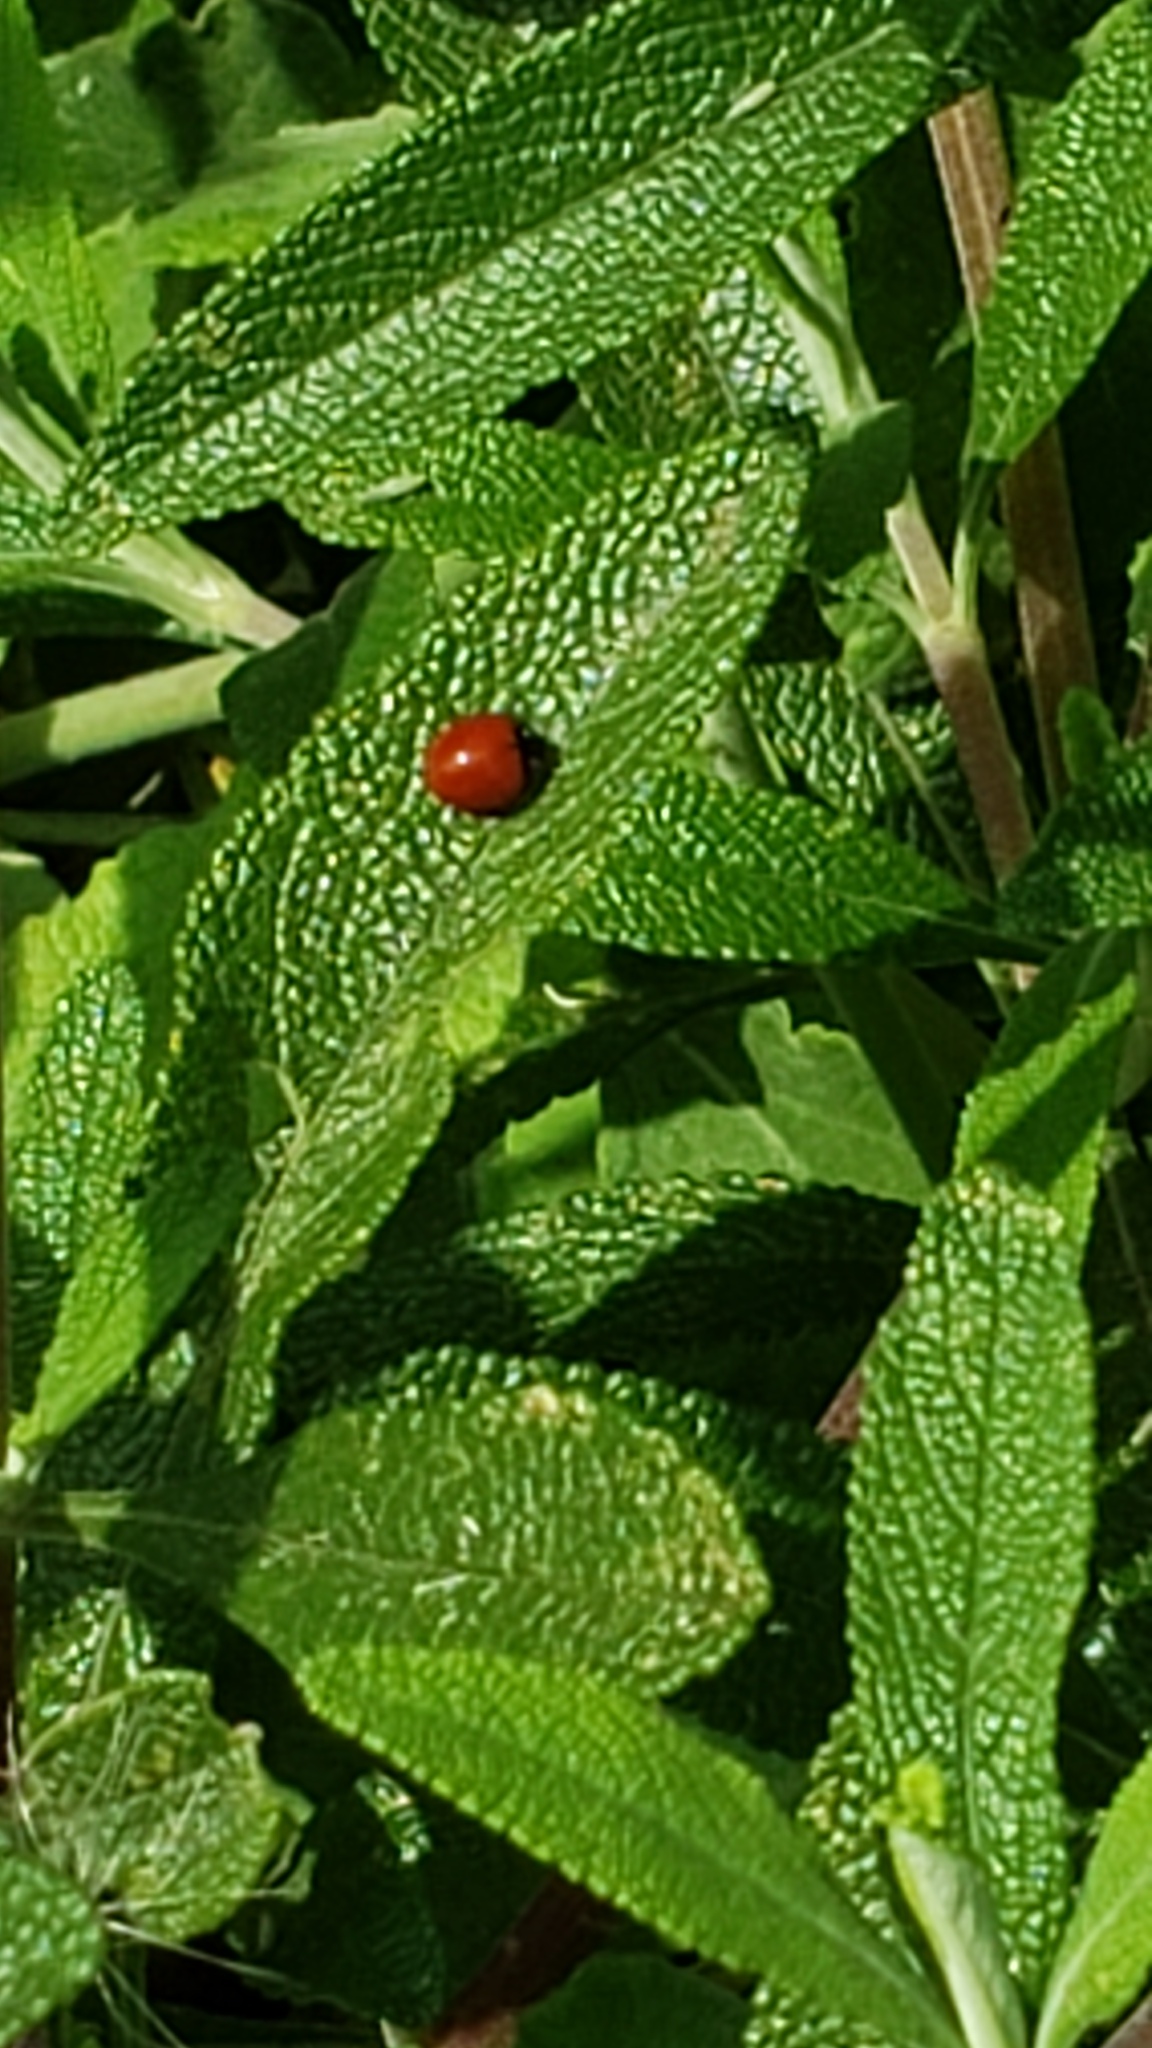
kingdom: Animalia
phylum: Arthropoda
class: Insecta
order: Coleoptera
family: Coccinellidae
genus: Cycloneda
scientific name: Cycloneda
